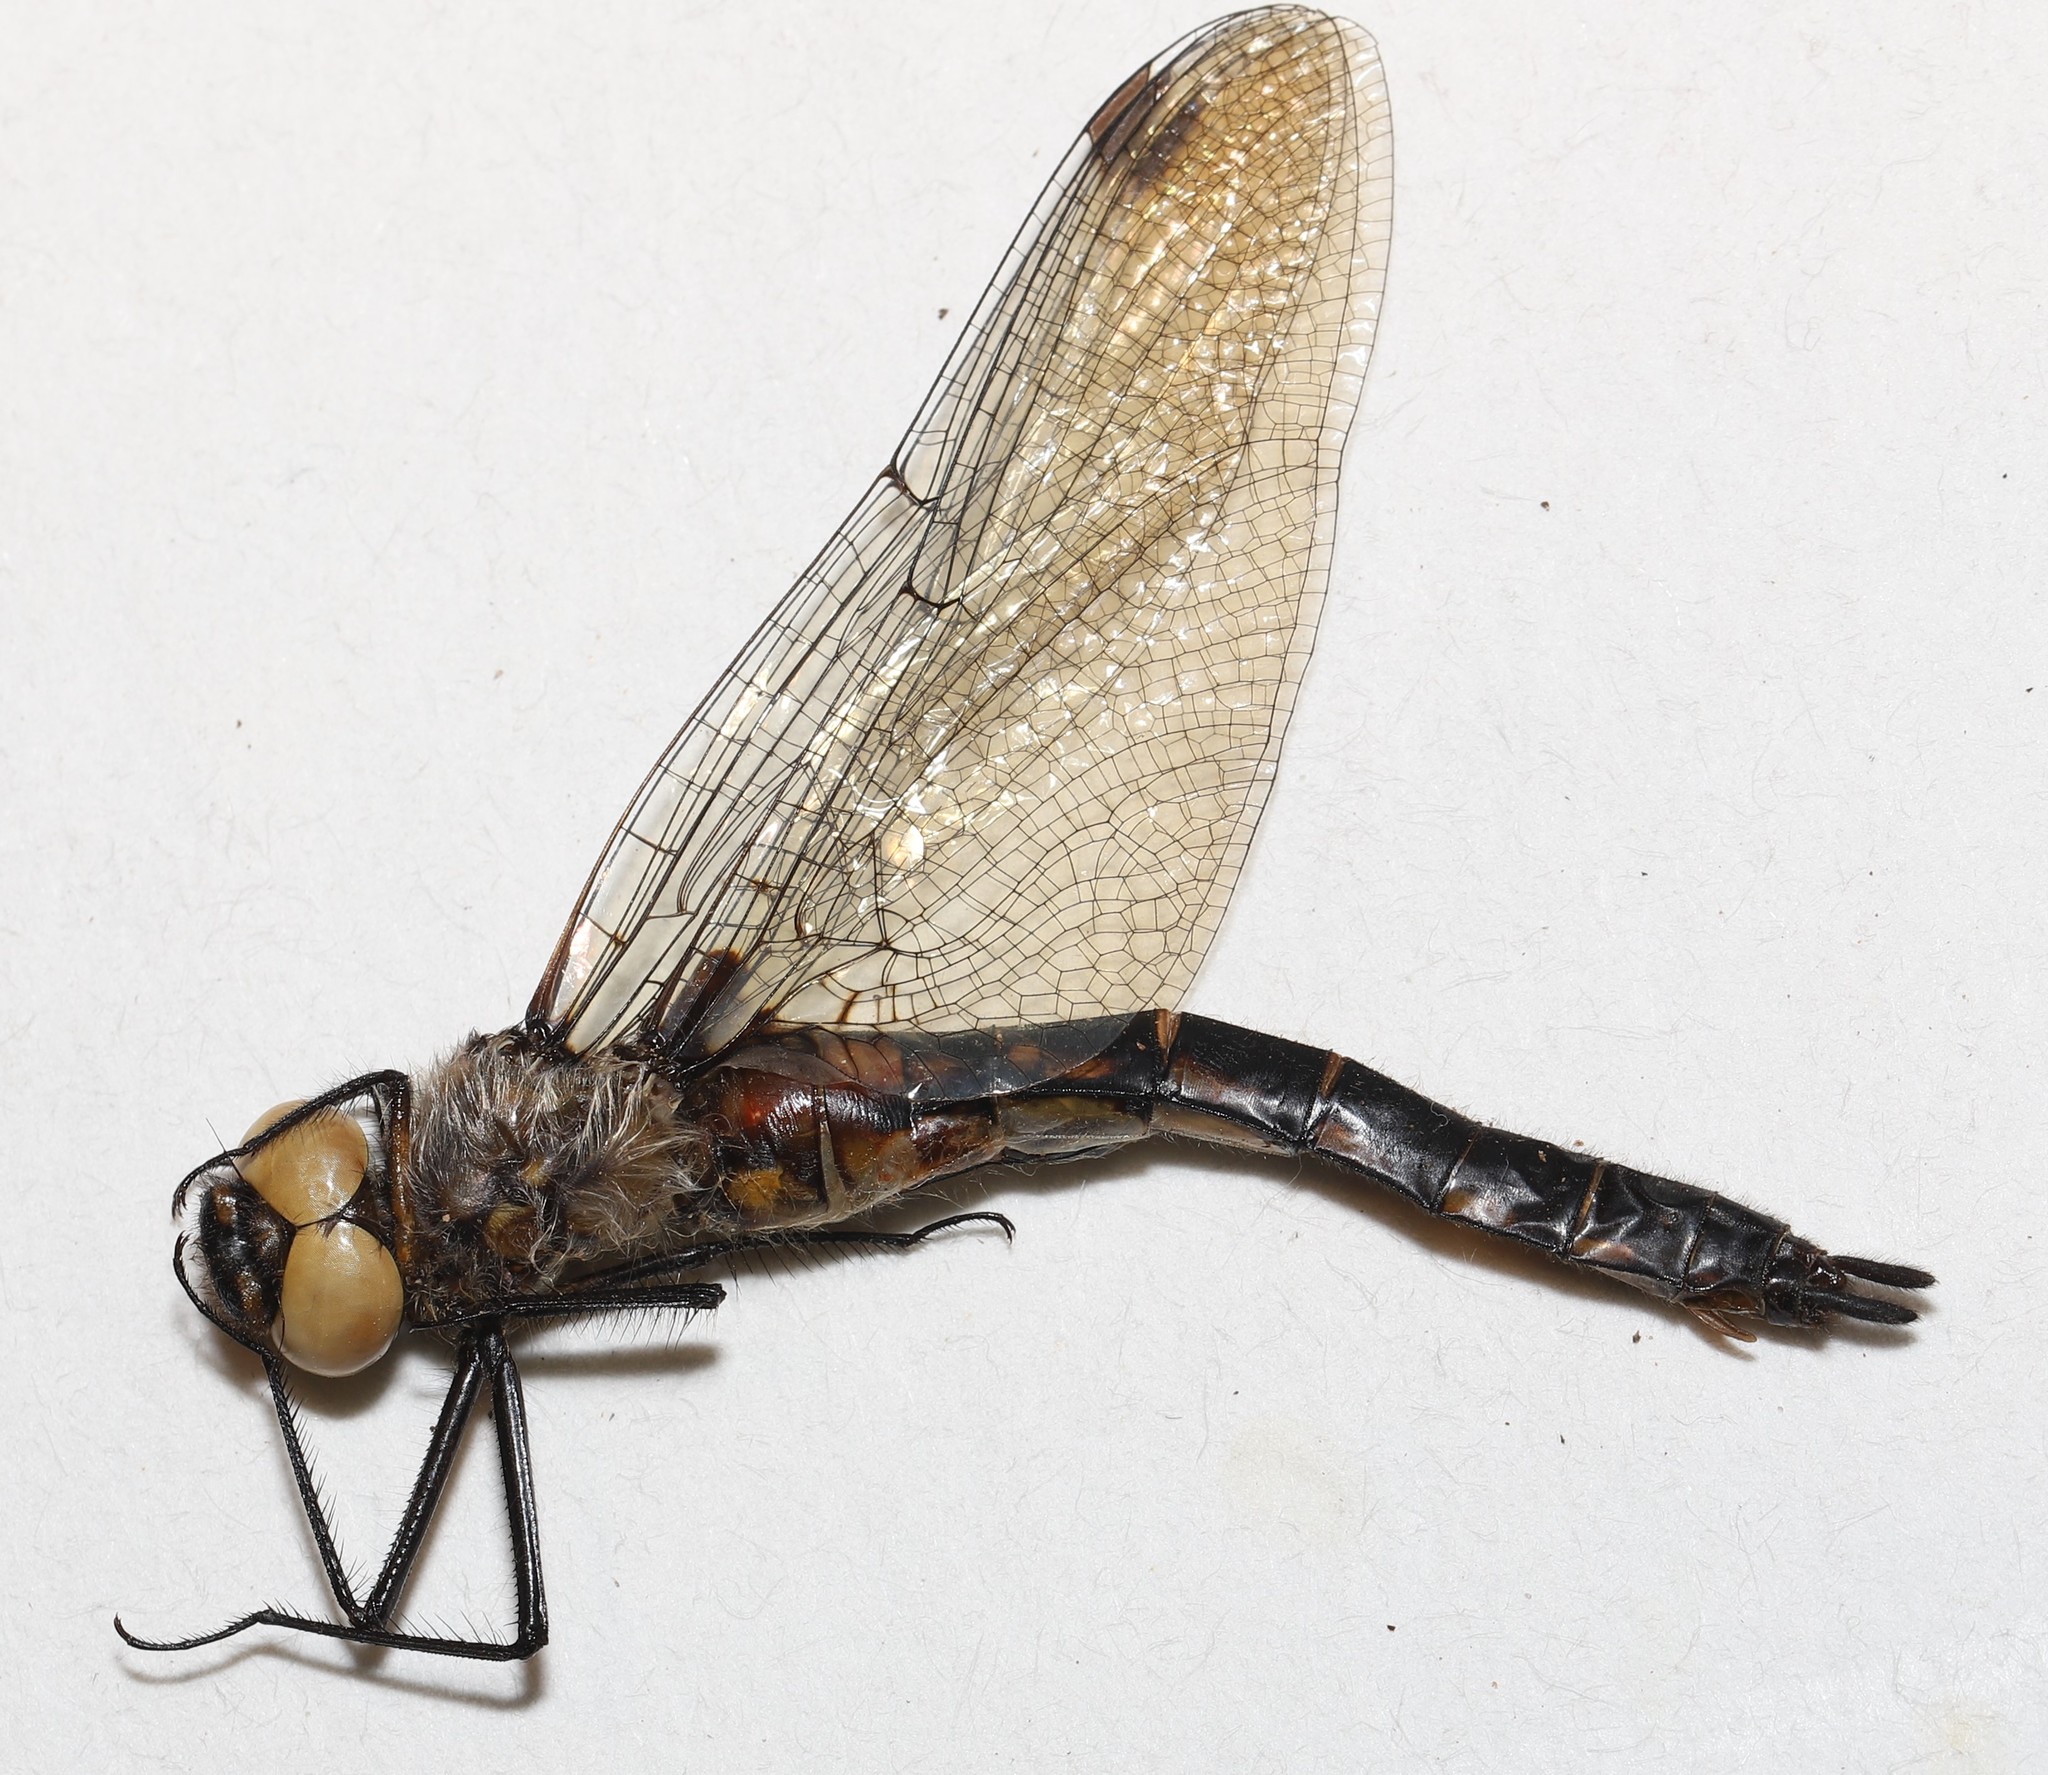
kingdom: Animalia
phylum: Arthropoda
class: Insecta
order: Odonata
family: Corduliidae
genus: Epitheca
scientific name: Epitheca spinigera
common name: Spiny baskettail
